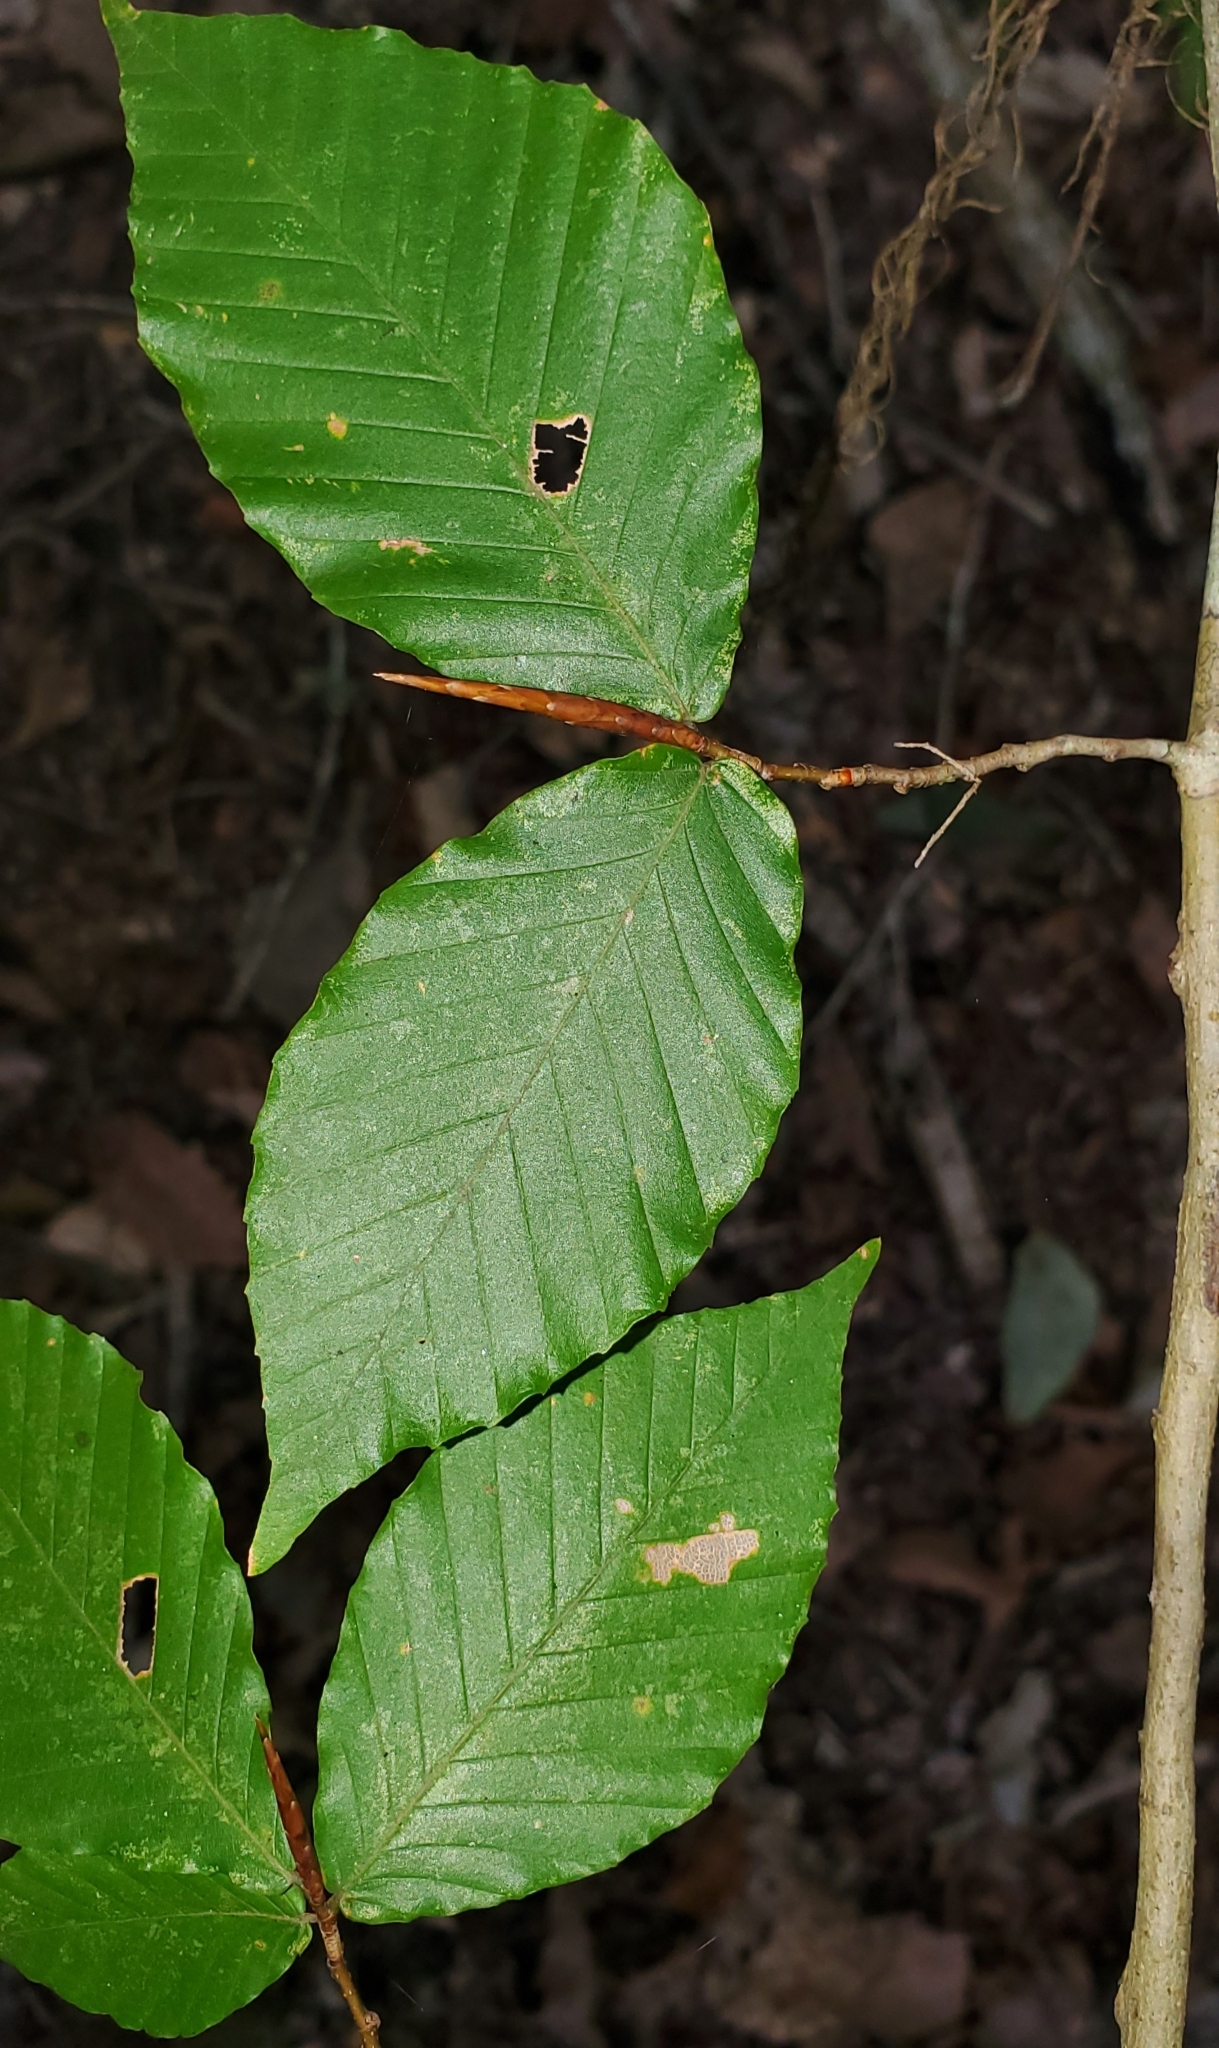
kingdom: Plantae
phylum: Tracheophyta
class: Magnoliopsida
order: Fagales
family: Fagaceae
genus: Fagus
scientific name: Fagus grandifolia
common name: American beech
